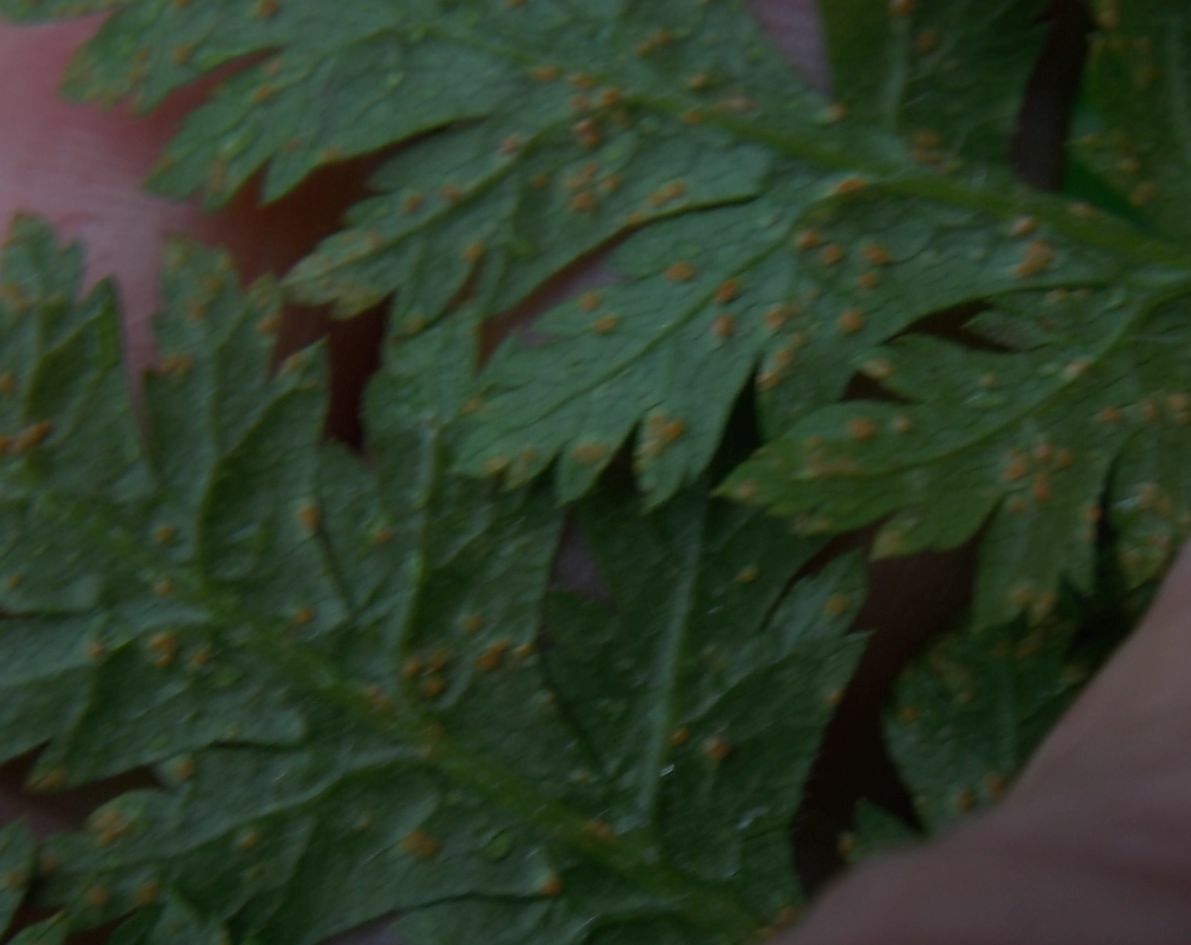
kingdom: Fungi
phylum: Basidiomycota
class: Pucciniomycetes
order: Pucciniales
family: Pucciniaceae
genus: Puccinia
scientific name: Puccinia chaerophylli
